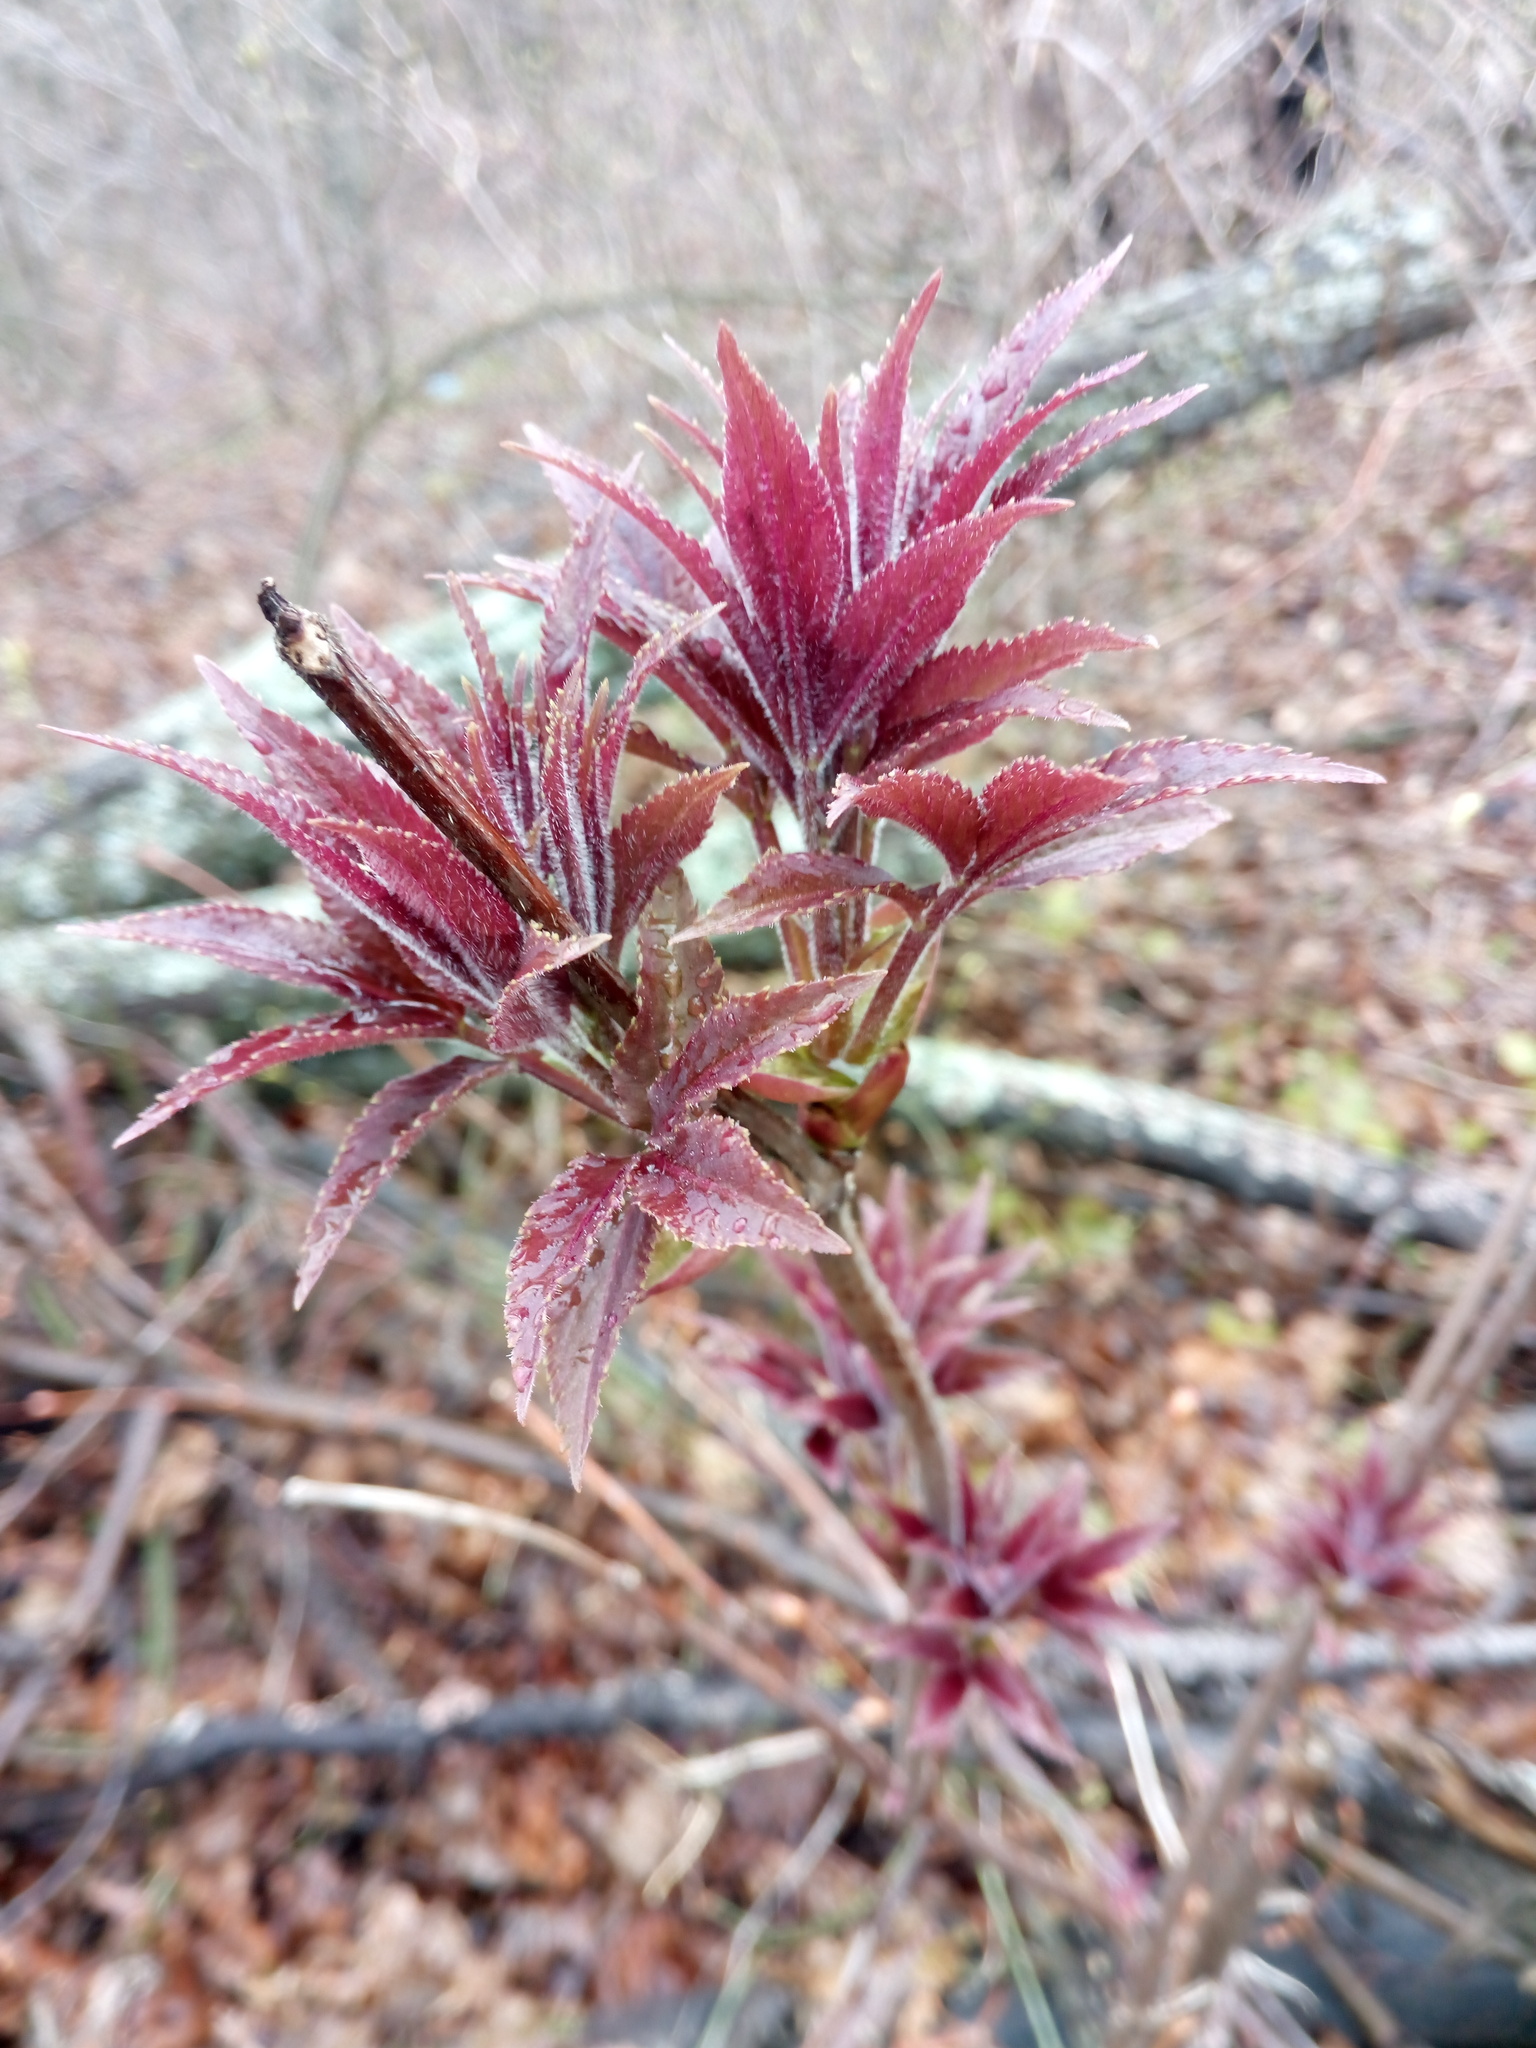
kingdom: Plantae
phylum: Tracheophyta
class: Magnoliopsida
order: Dipsacales
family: Viburnaceae
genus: Sambucus
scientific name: Sambucus sibirica
